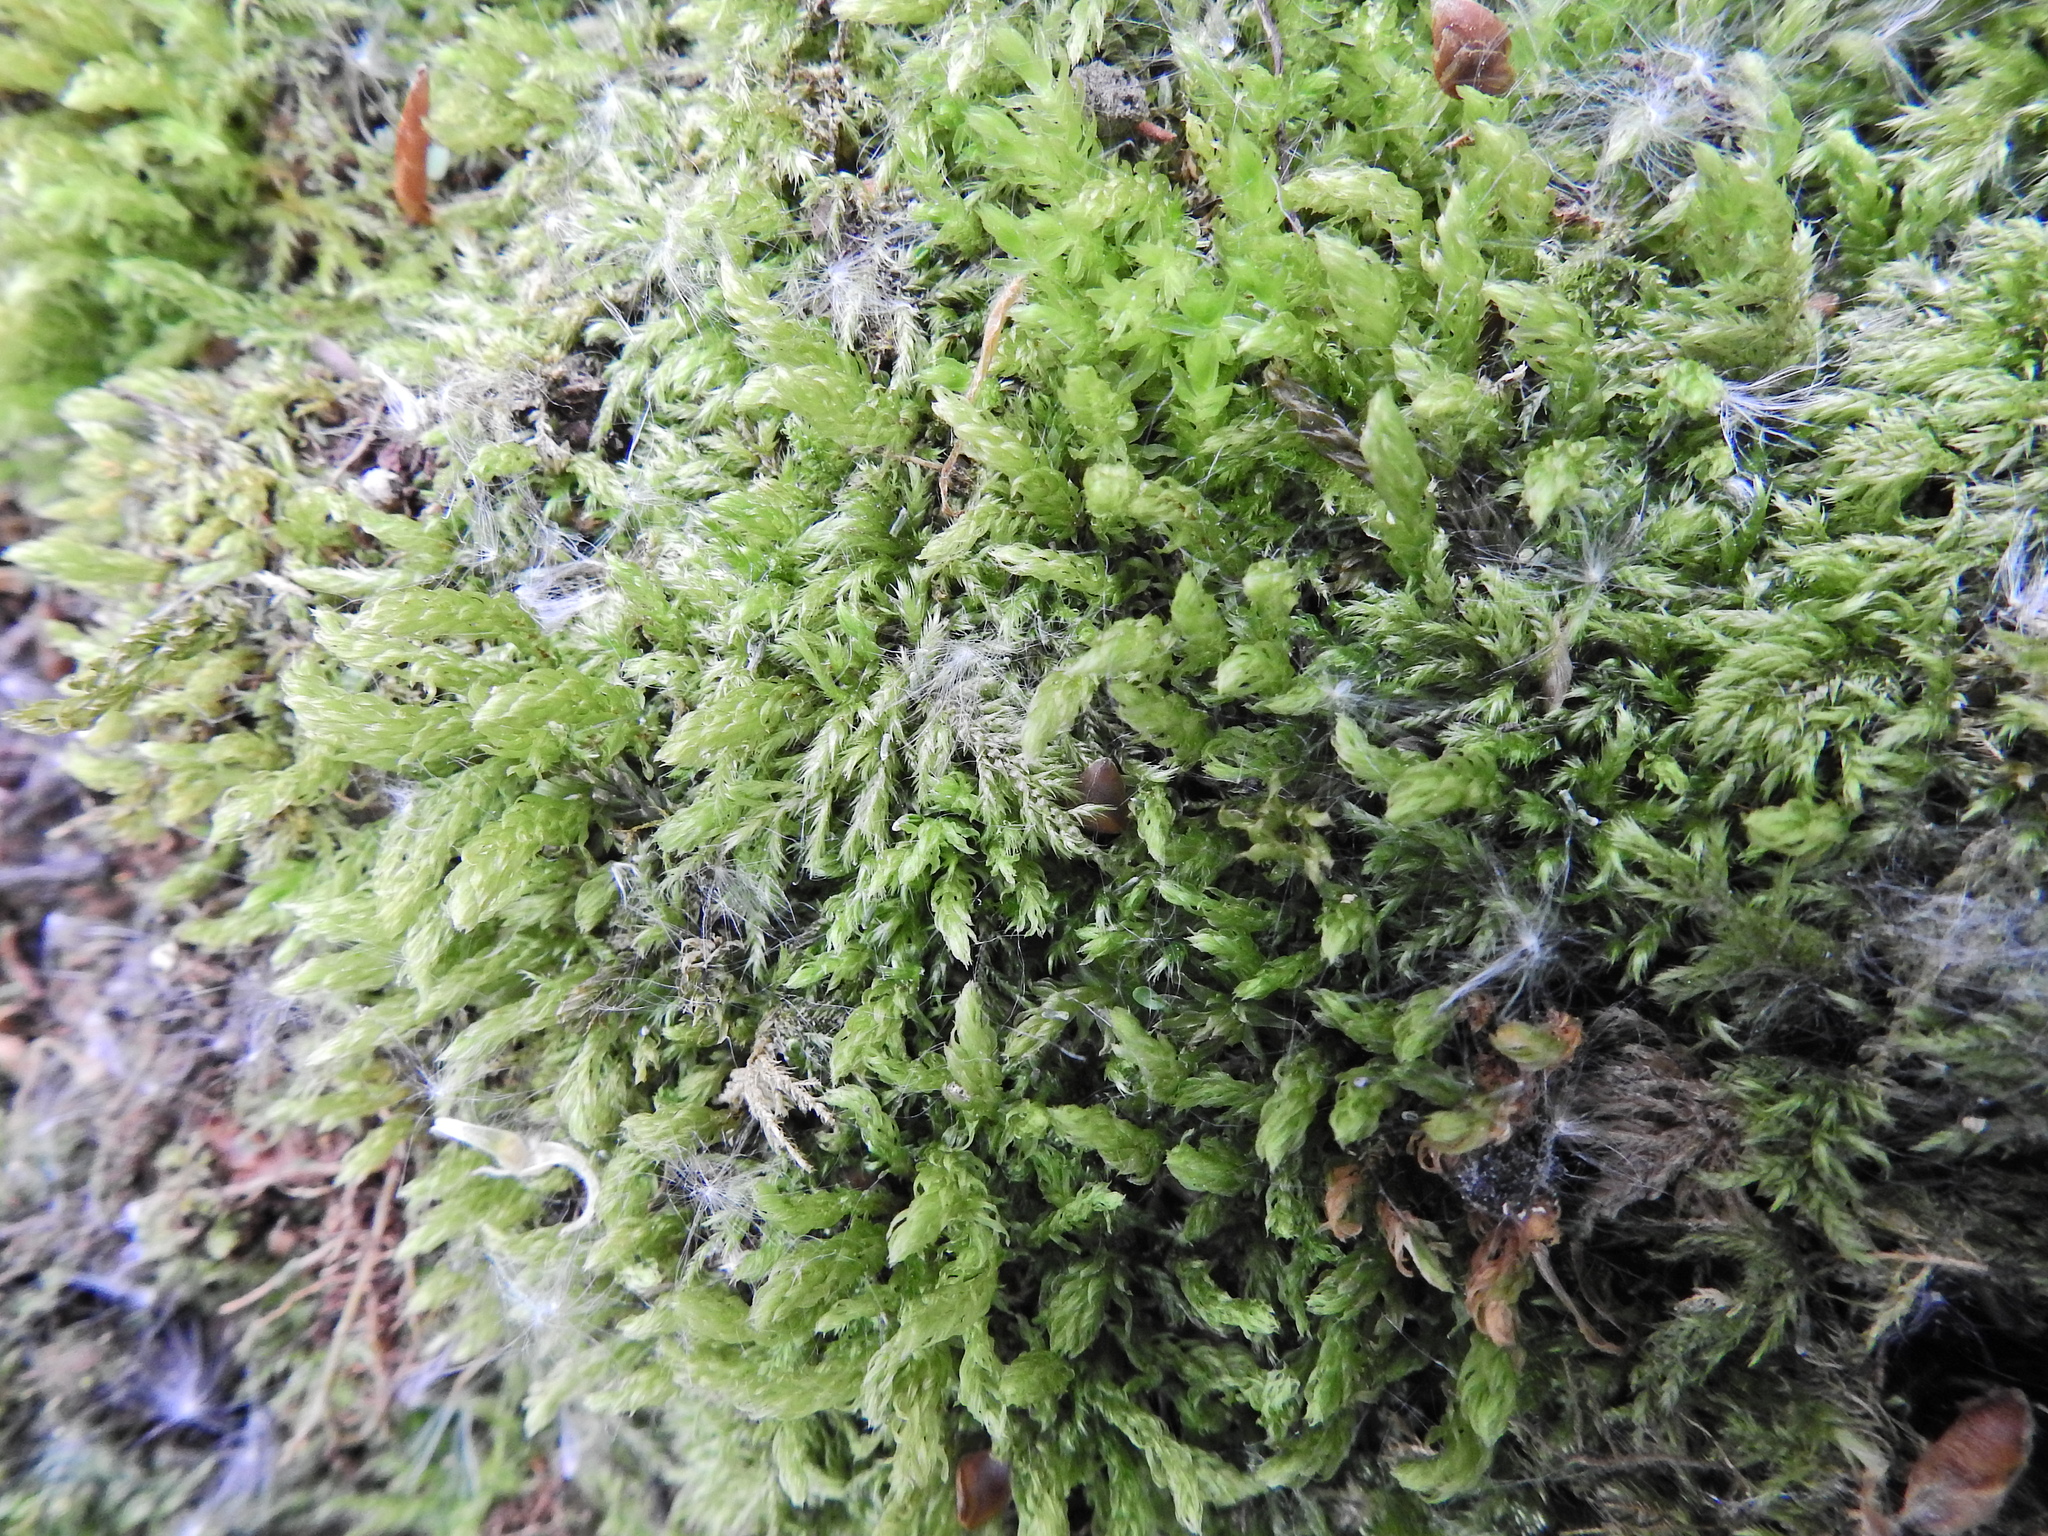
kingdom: Plantae
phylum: Bryophyta
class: Bryopsida
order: Bryales
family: Mniaceae
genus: Mnium
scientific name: Mnium hornum
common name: Swan's-neck leafy moss
